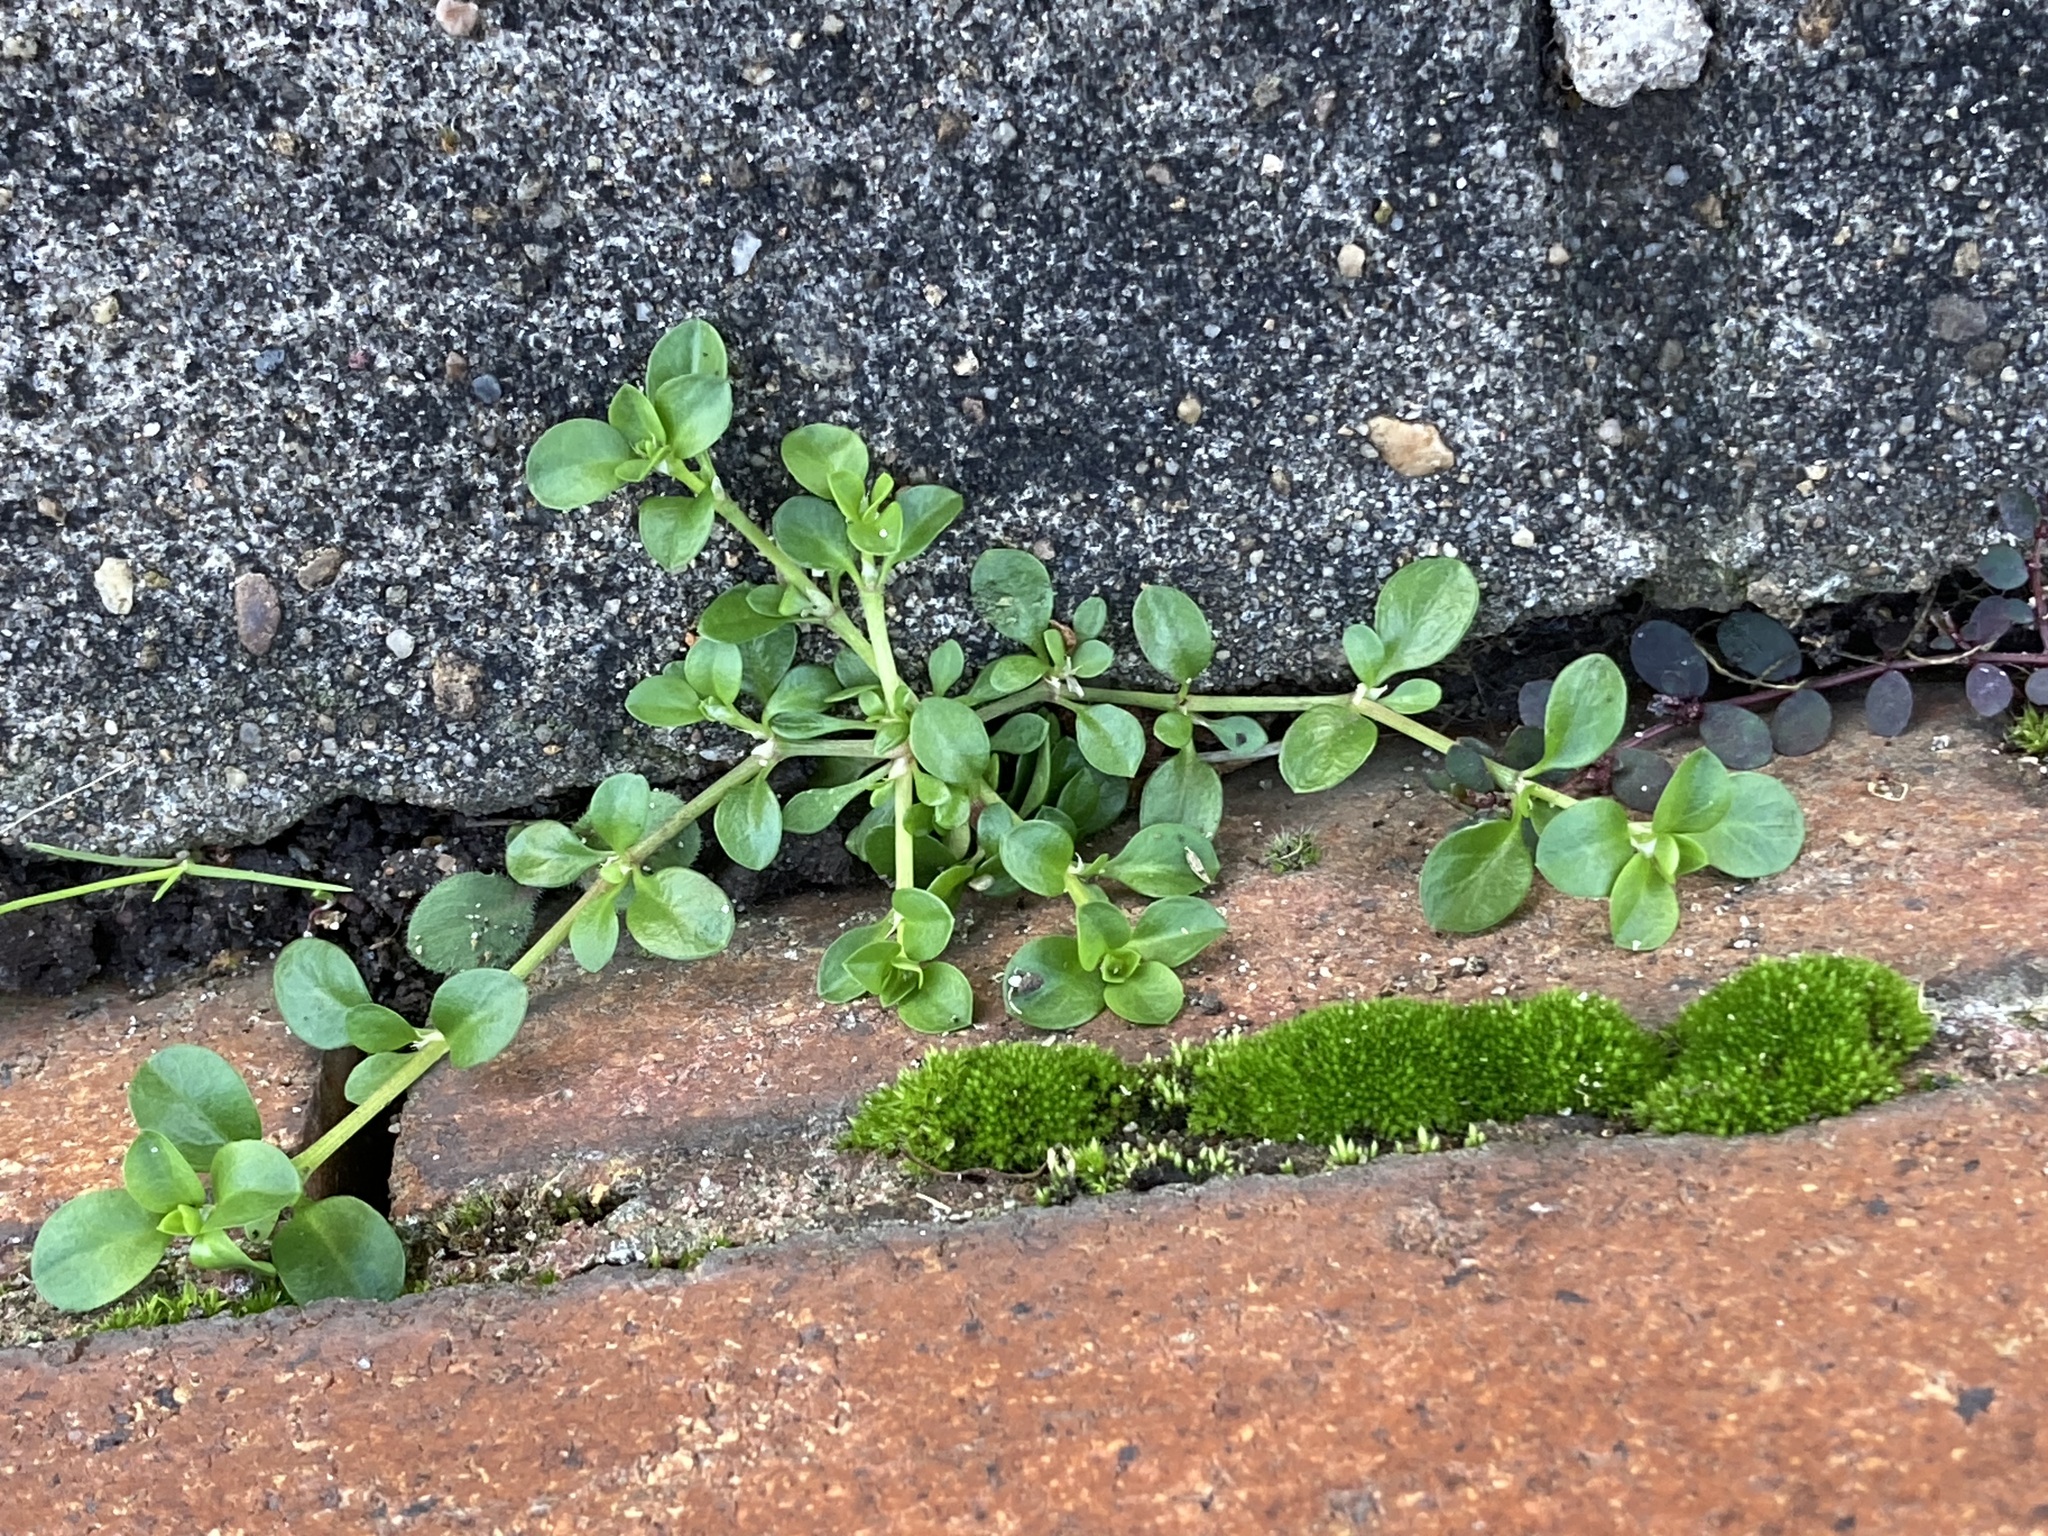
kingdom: Plantae
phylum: Tracheophyta
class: Magnoliopsida
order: Caryophyllales
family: Caryophyllaceae
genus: Polycarpon
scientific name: Polycarpon tetraphyllum
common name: Four-leaved all-seed
